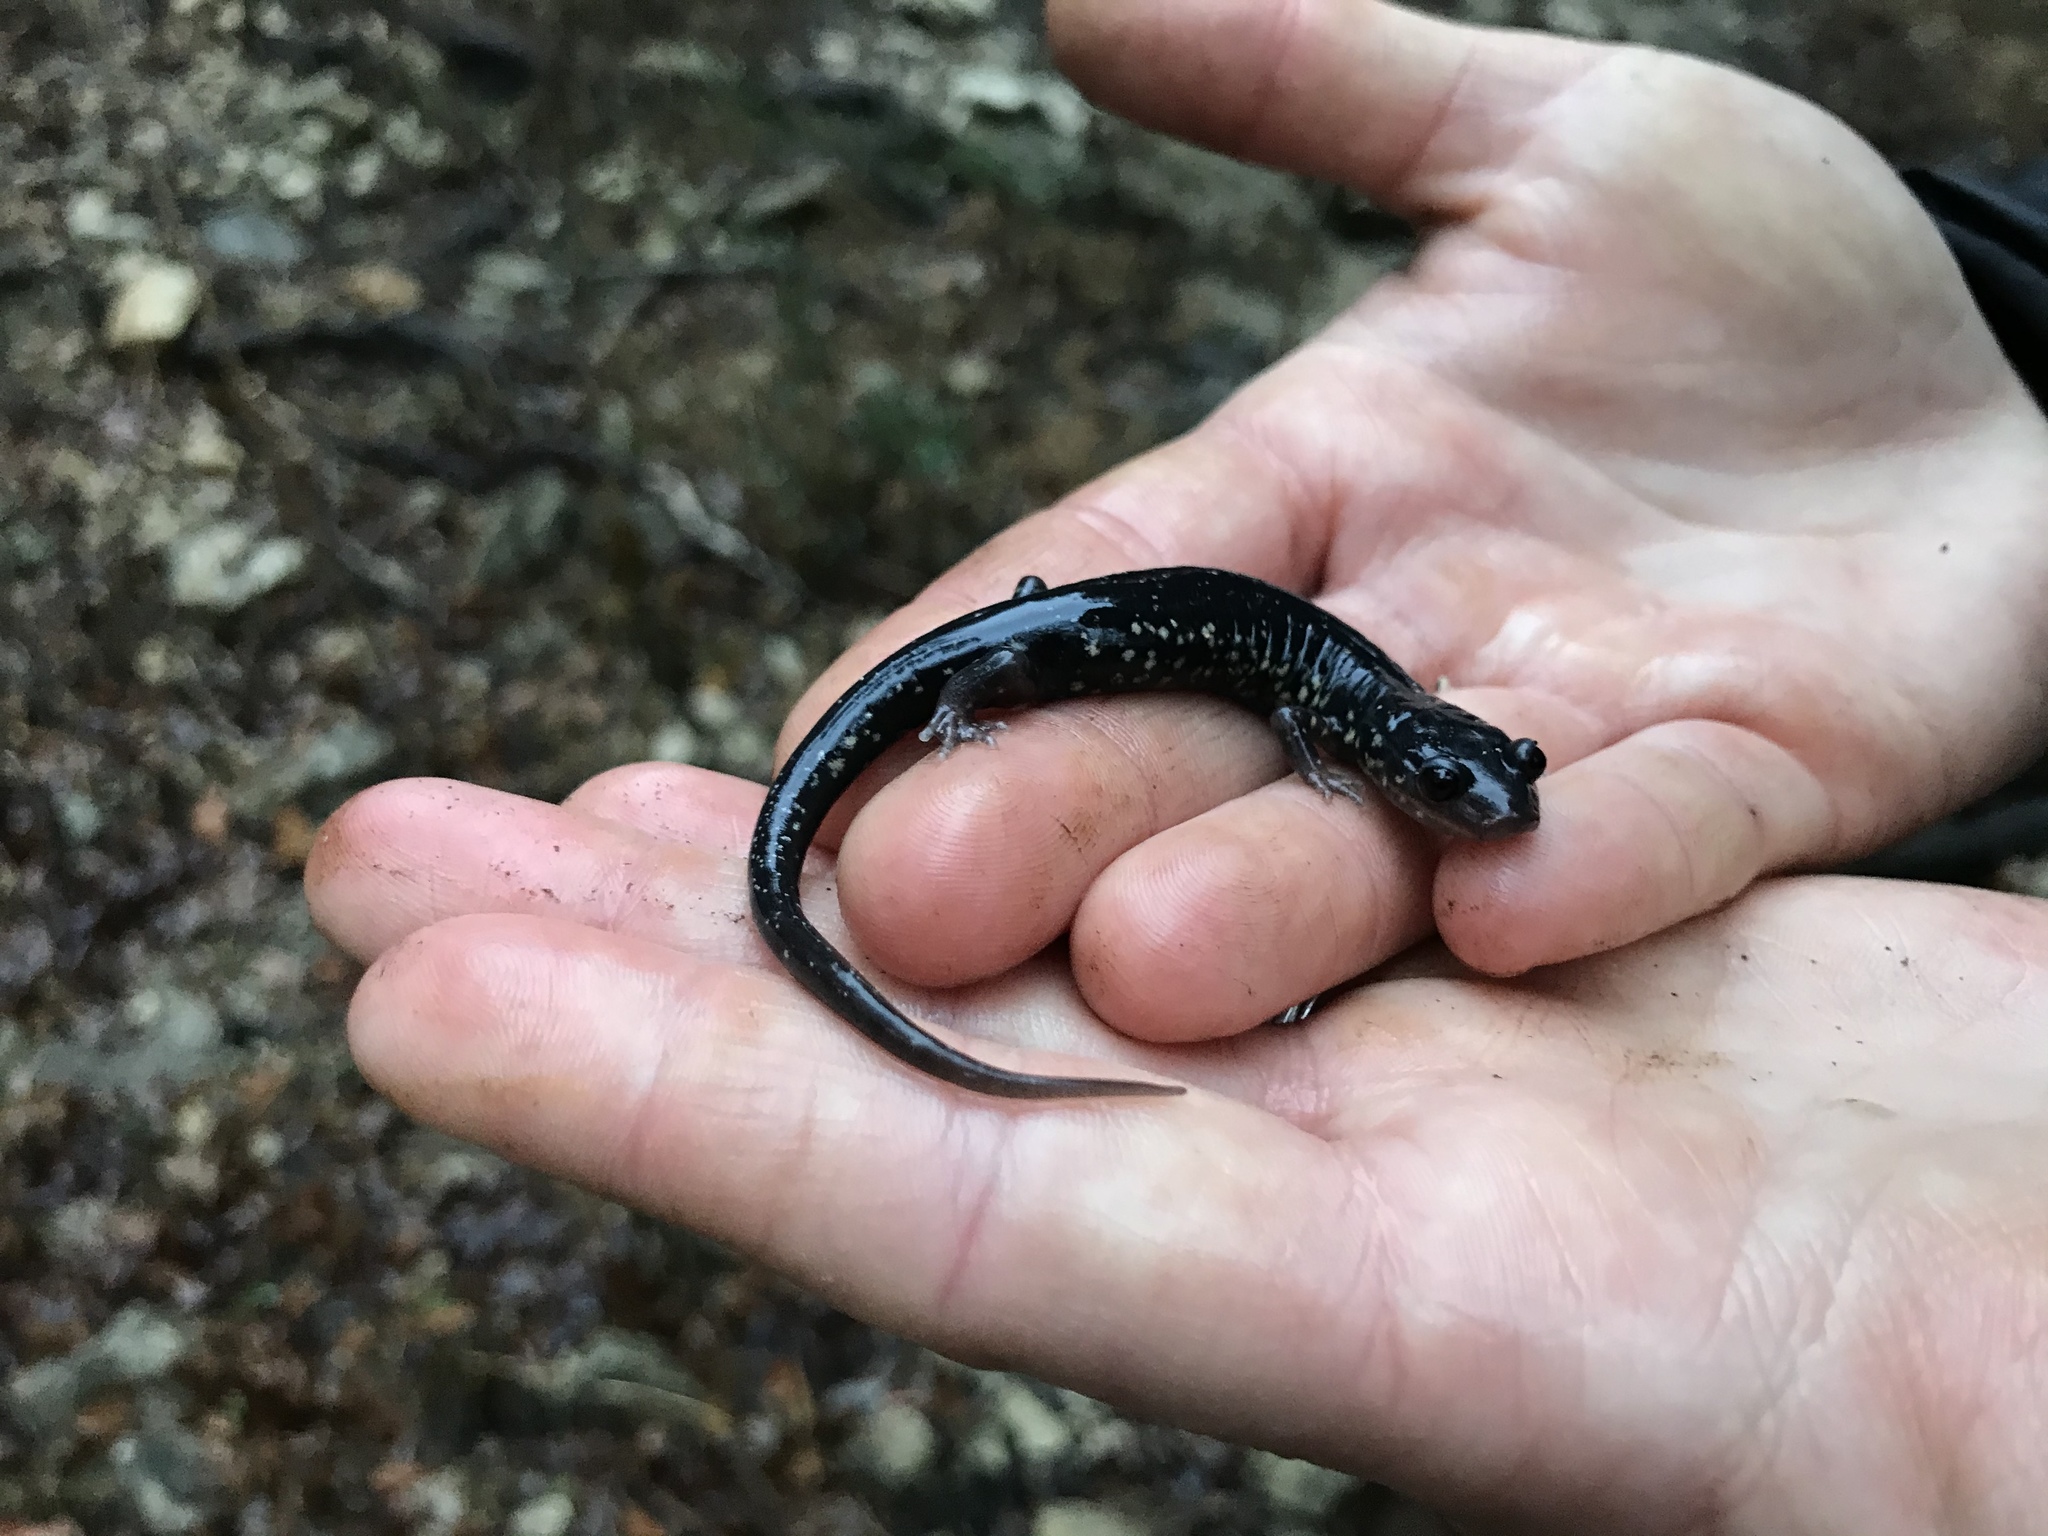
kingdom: Animalia
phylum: Chordata
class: Amphibia
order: Caudata
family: Plethodontidae
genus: Plethodon
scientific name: Plethodon albagula
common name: Western slimy salamander
